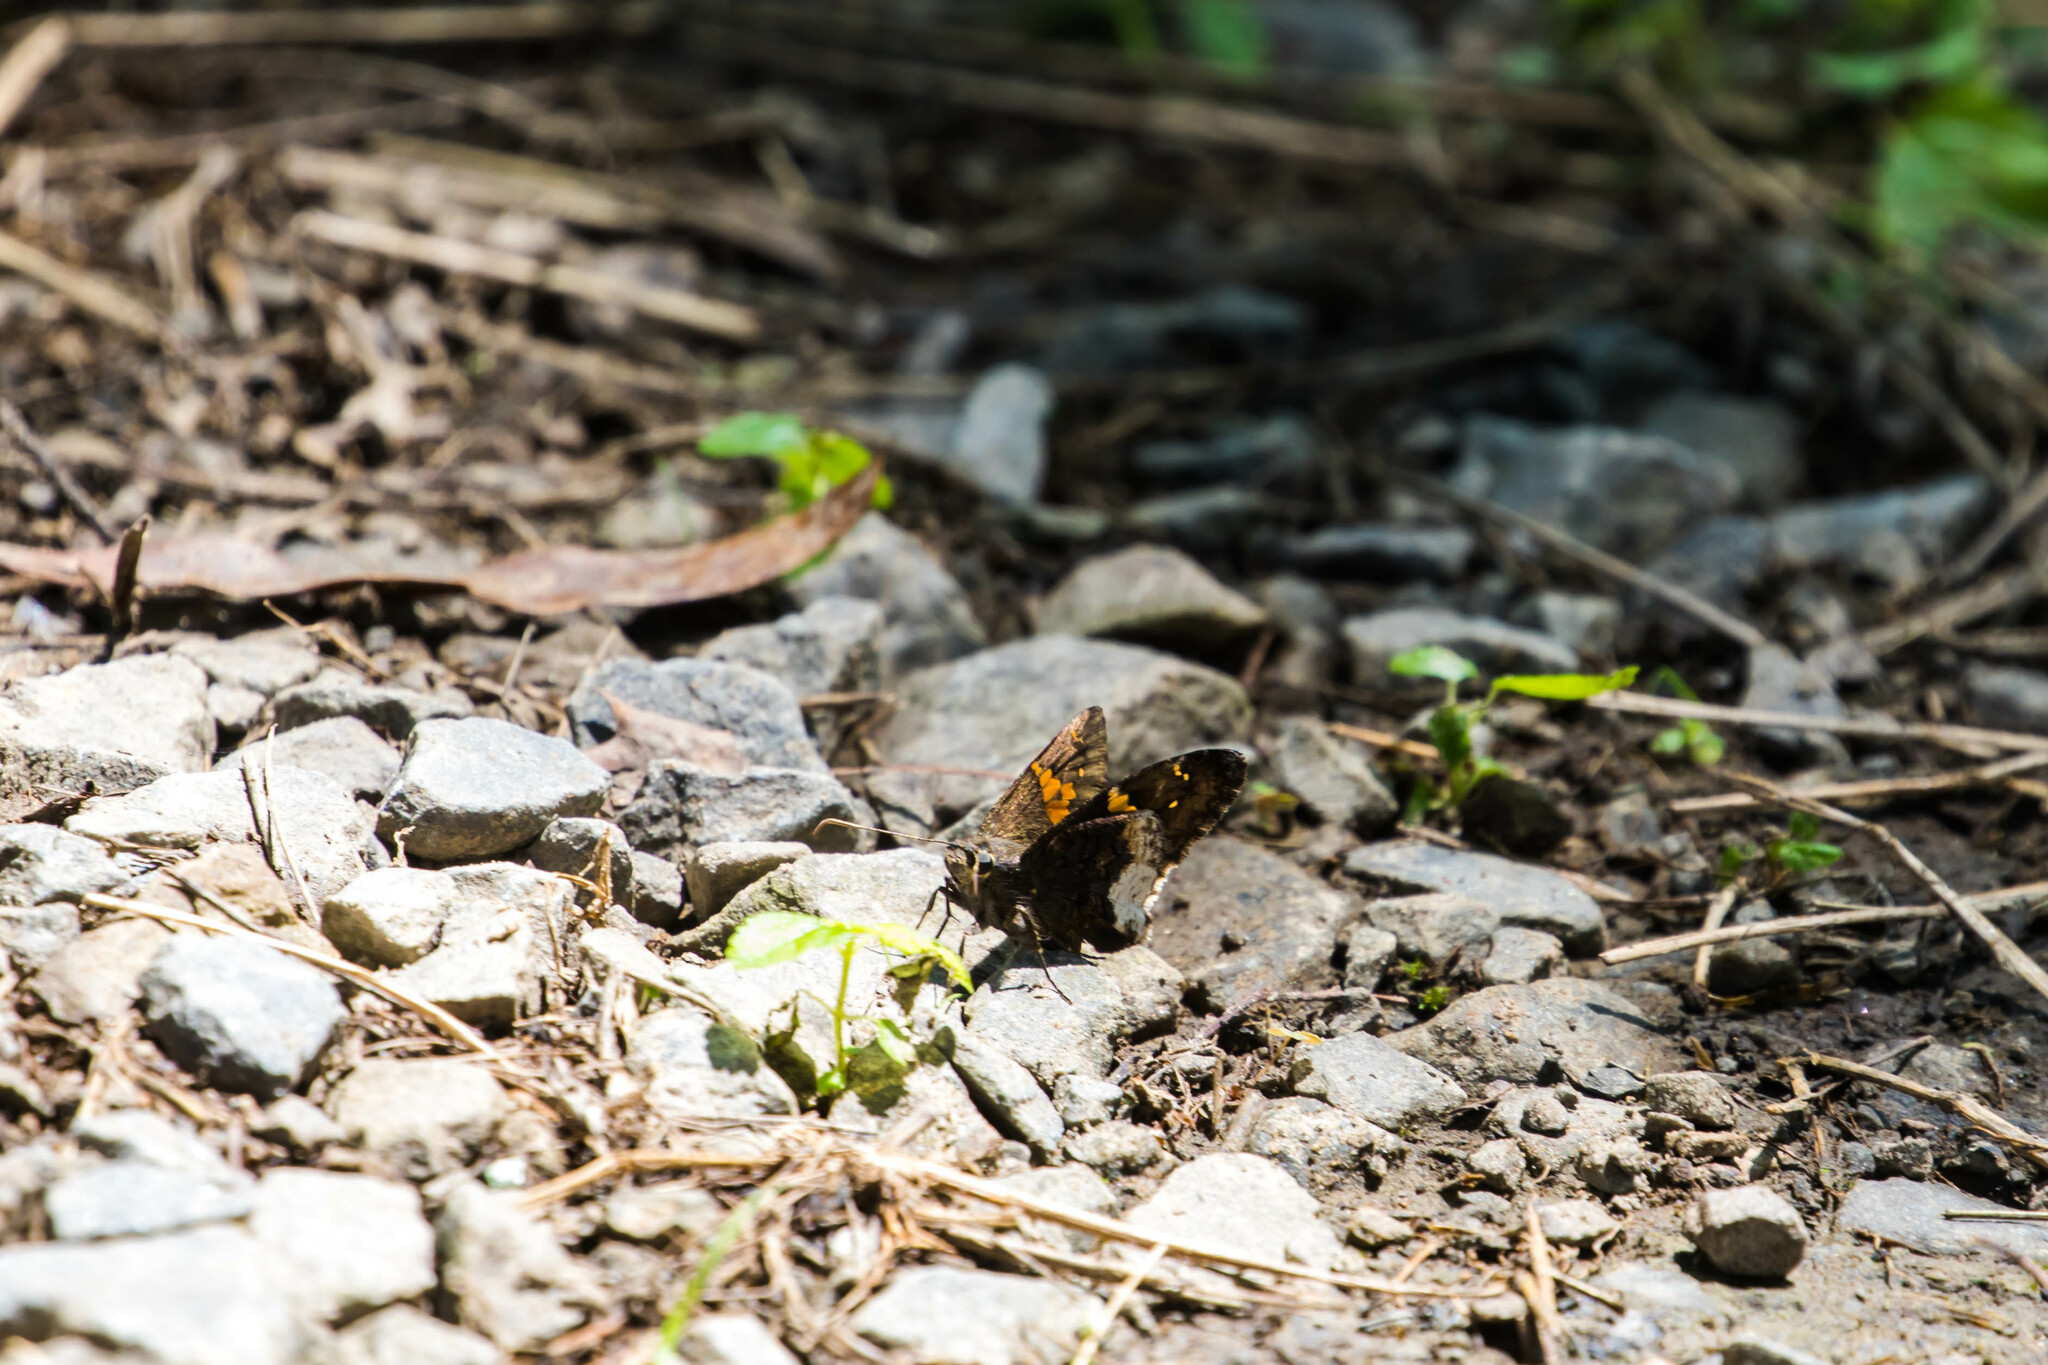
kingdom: Animalia
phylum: Arthropoda
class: Insecta
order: Lepidoptera
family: Hesperiidae
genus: Thorybes
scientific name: Thorybes lyciades
